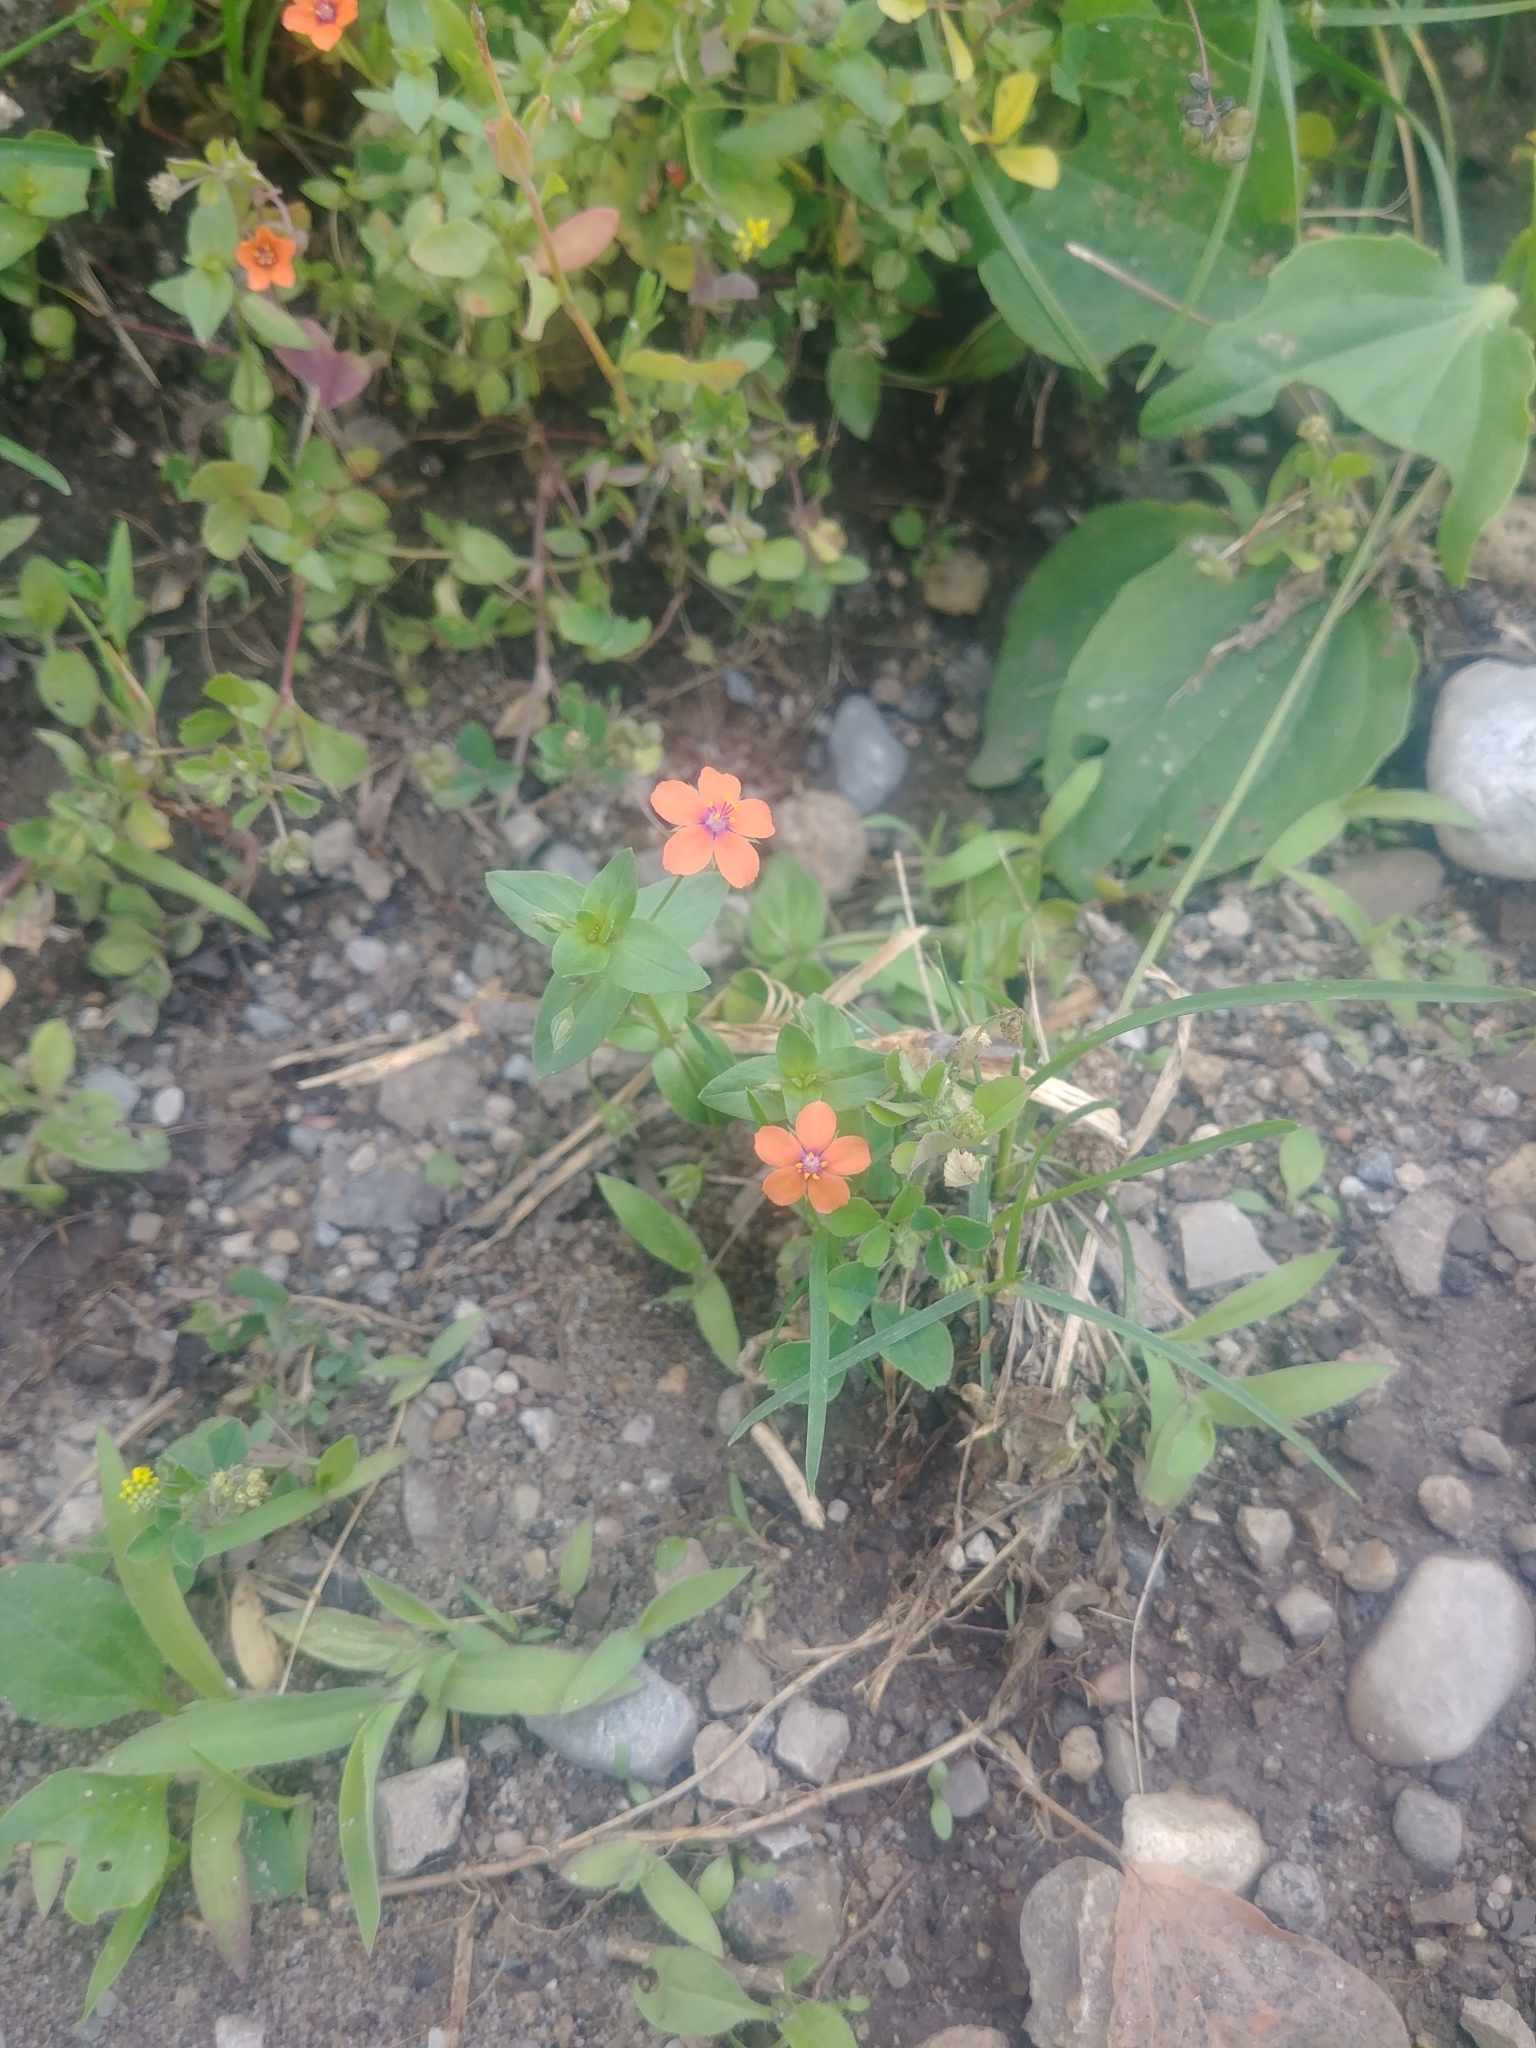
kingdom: Plantae
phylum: Tracheophyta
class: Magnoliopsida
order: Ericales
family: Primulaceae
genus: Lysimachia
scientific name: Lysimachia arvensis
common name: Scarlet pimpernel
